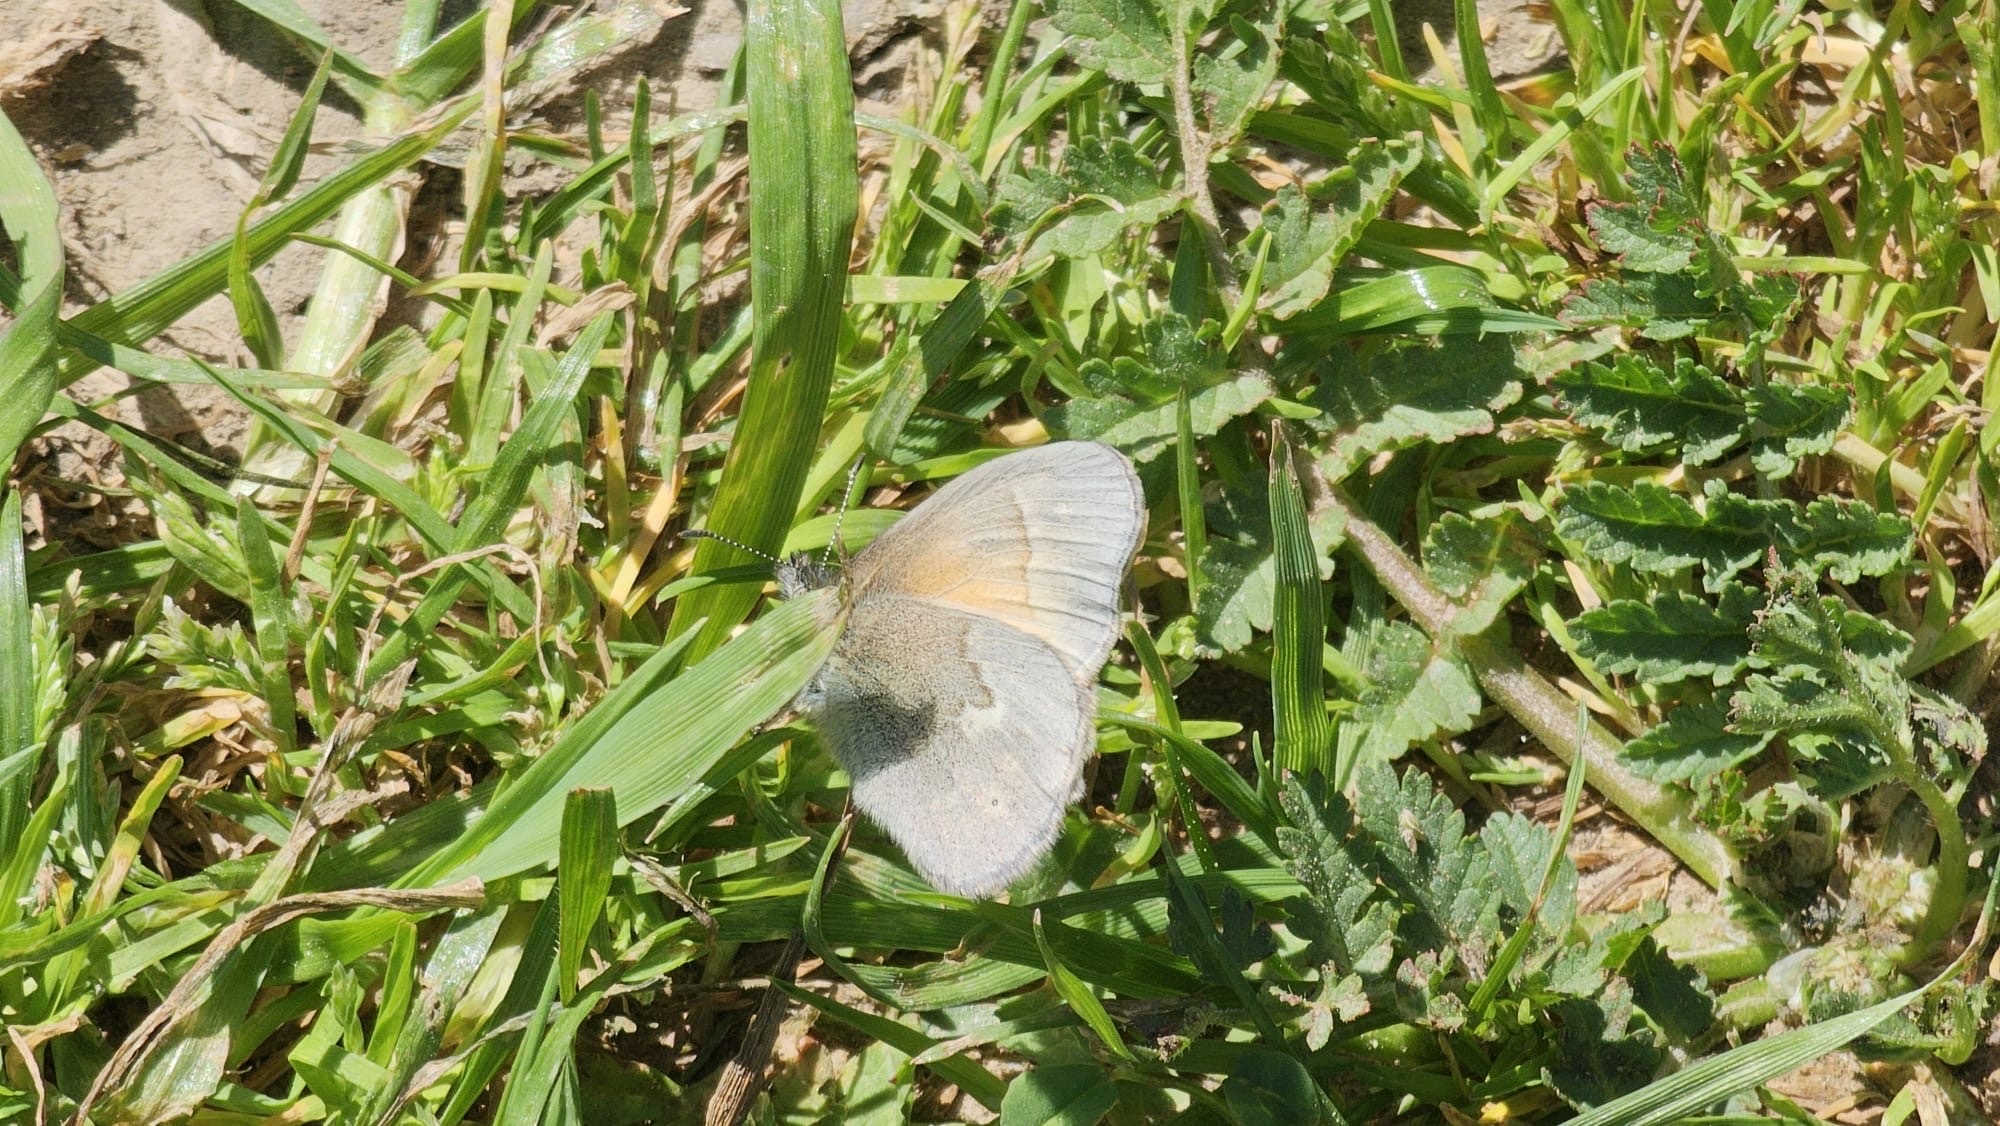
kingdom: Animalia
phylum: Arthropoda
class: Insecta
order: Lepidoptera
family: Nymphalidae
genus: Coenonympha
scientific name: Coenonympha california
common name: Common ringlet
